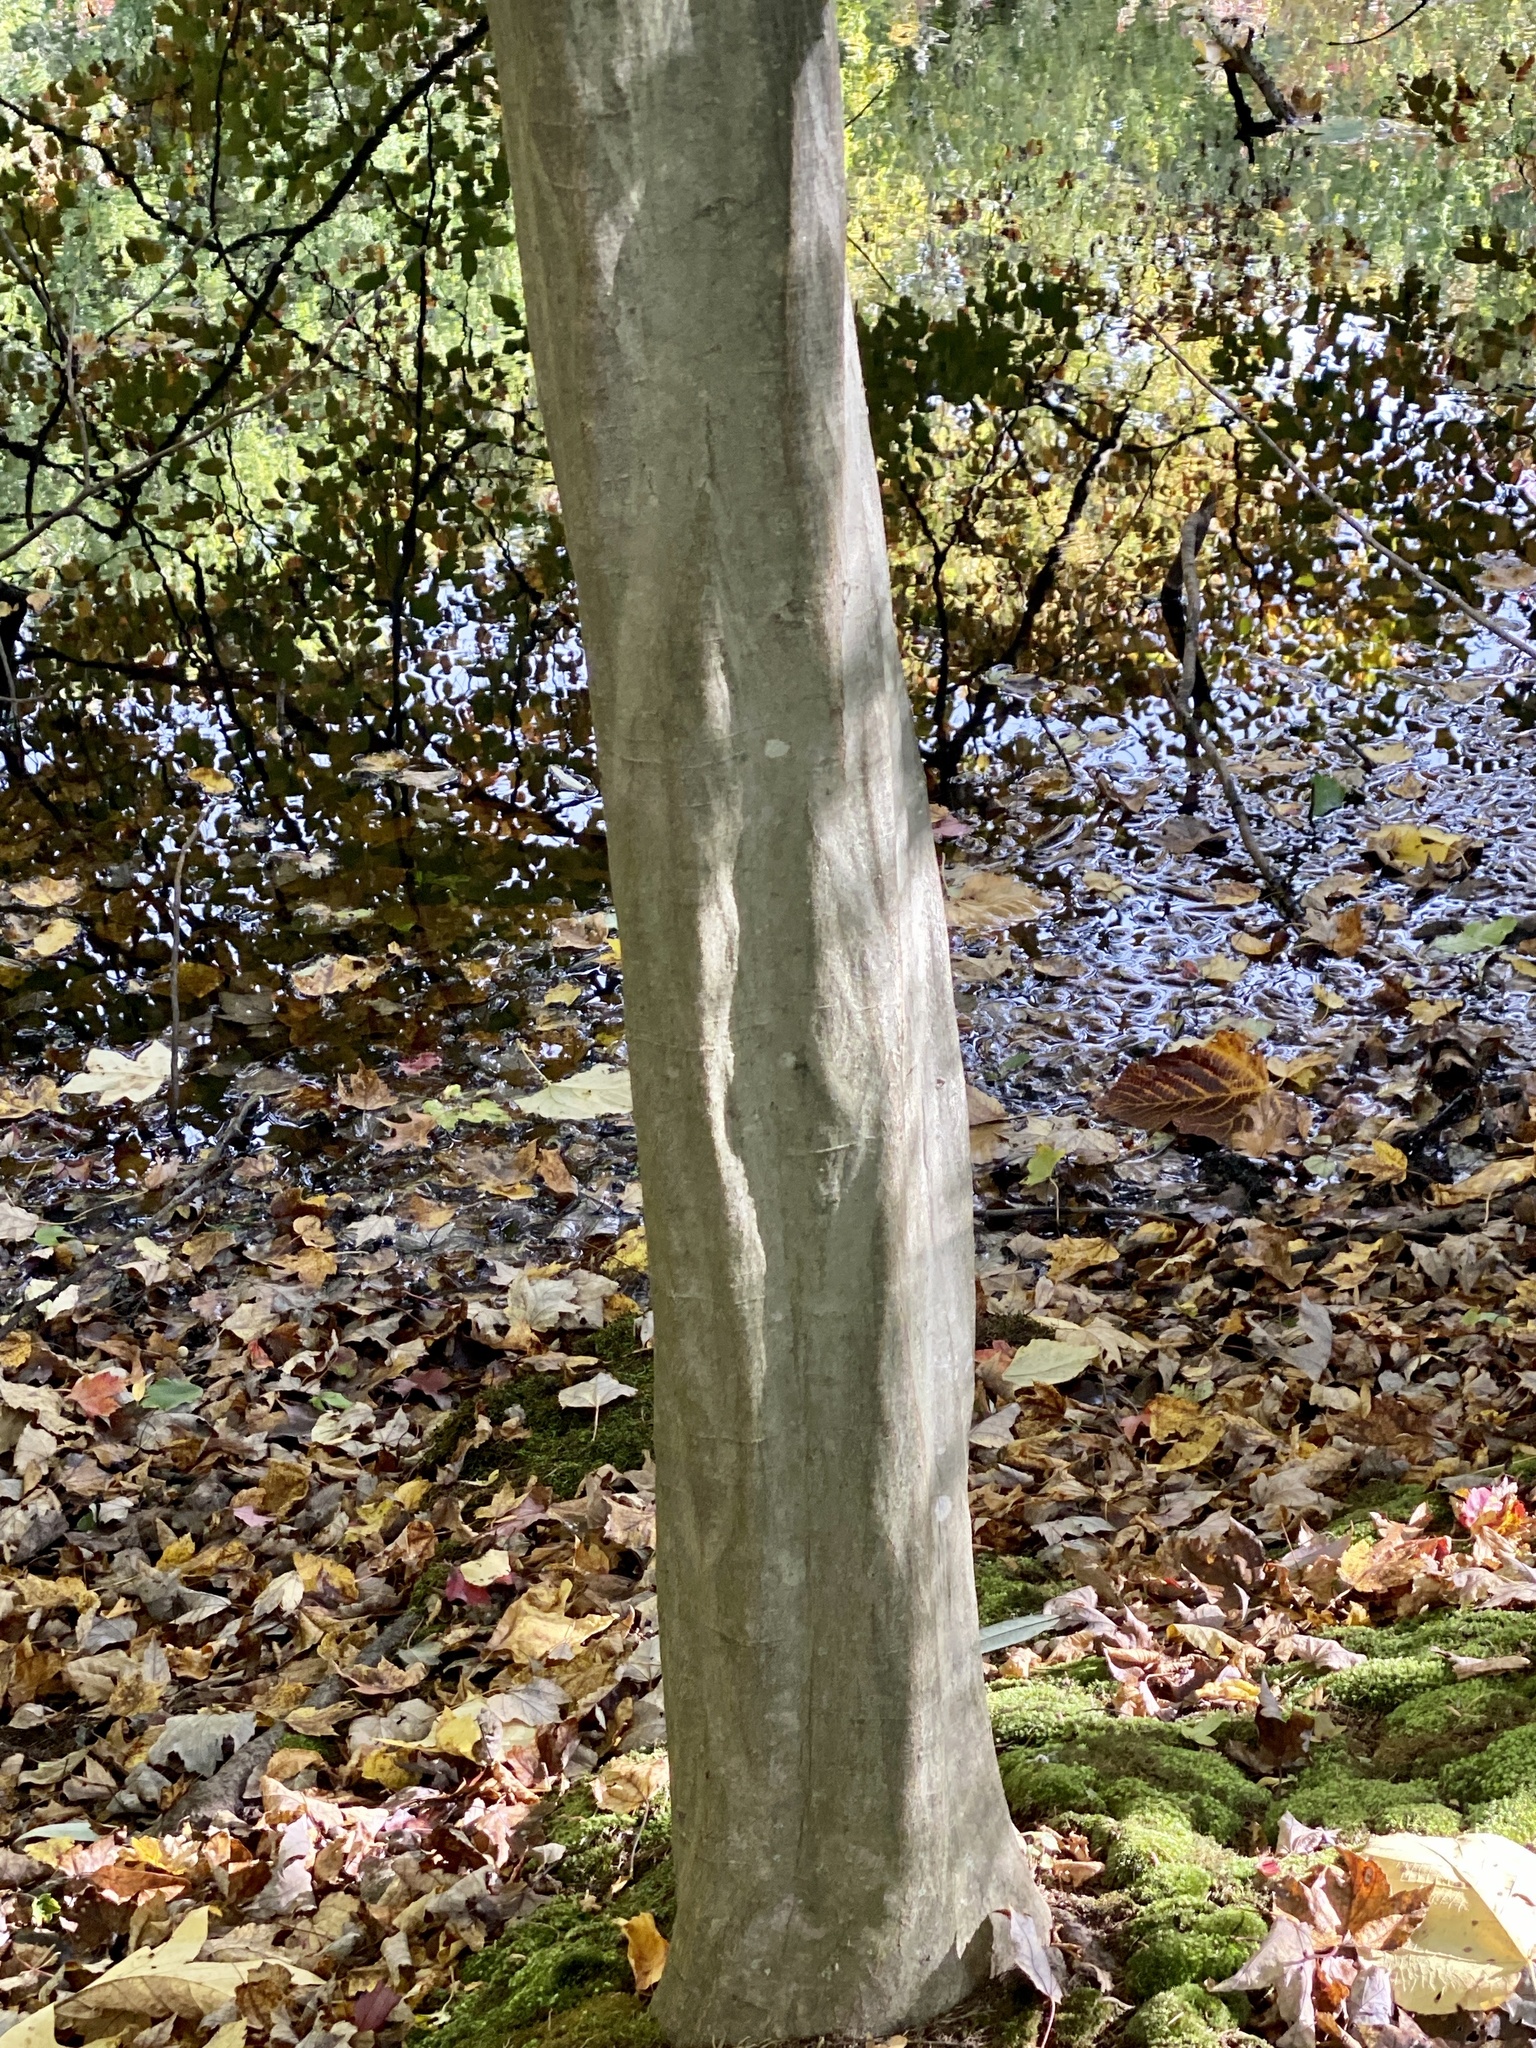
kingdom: Plantae
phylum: Tracheophyta
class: Magnoliopsida
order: Fagales
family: Betulaceae
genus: Carpinus
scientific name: Carpinus caroliniana
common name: American hornbeam
